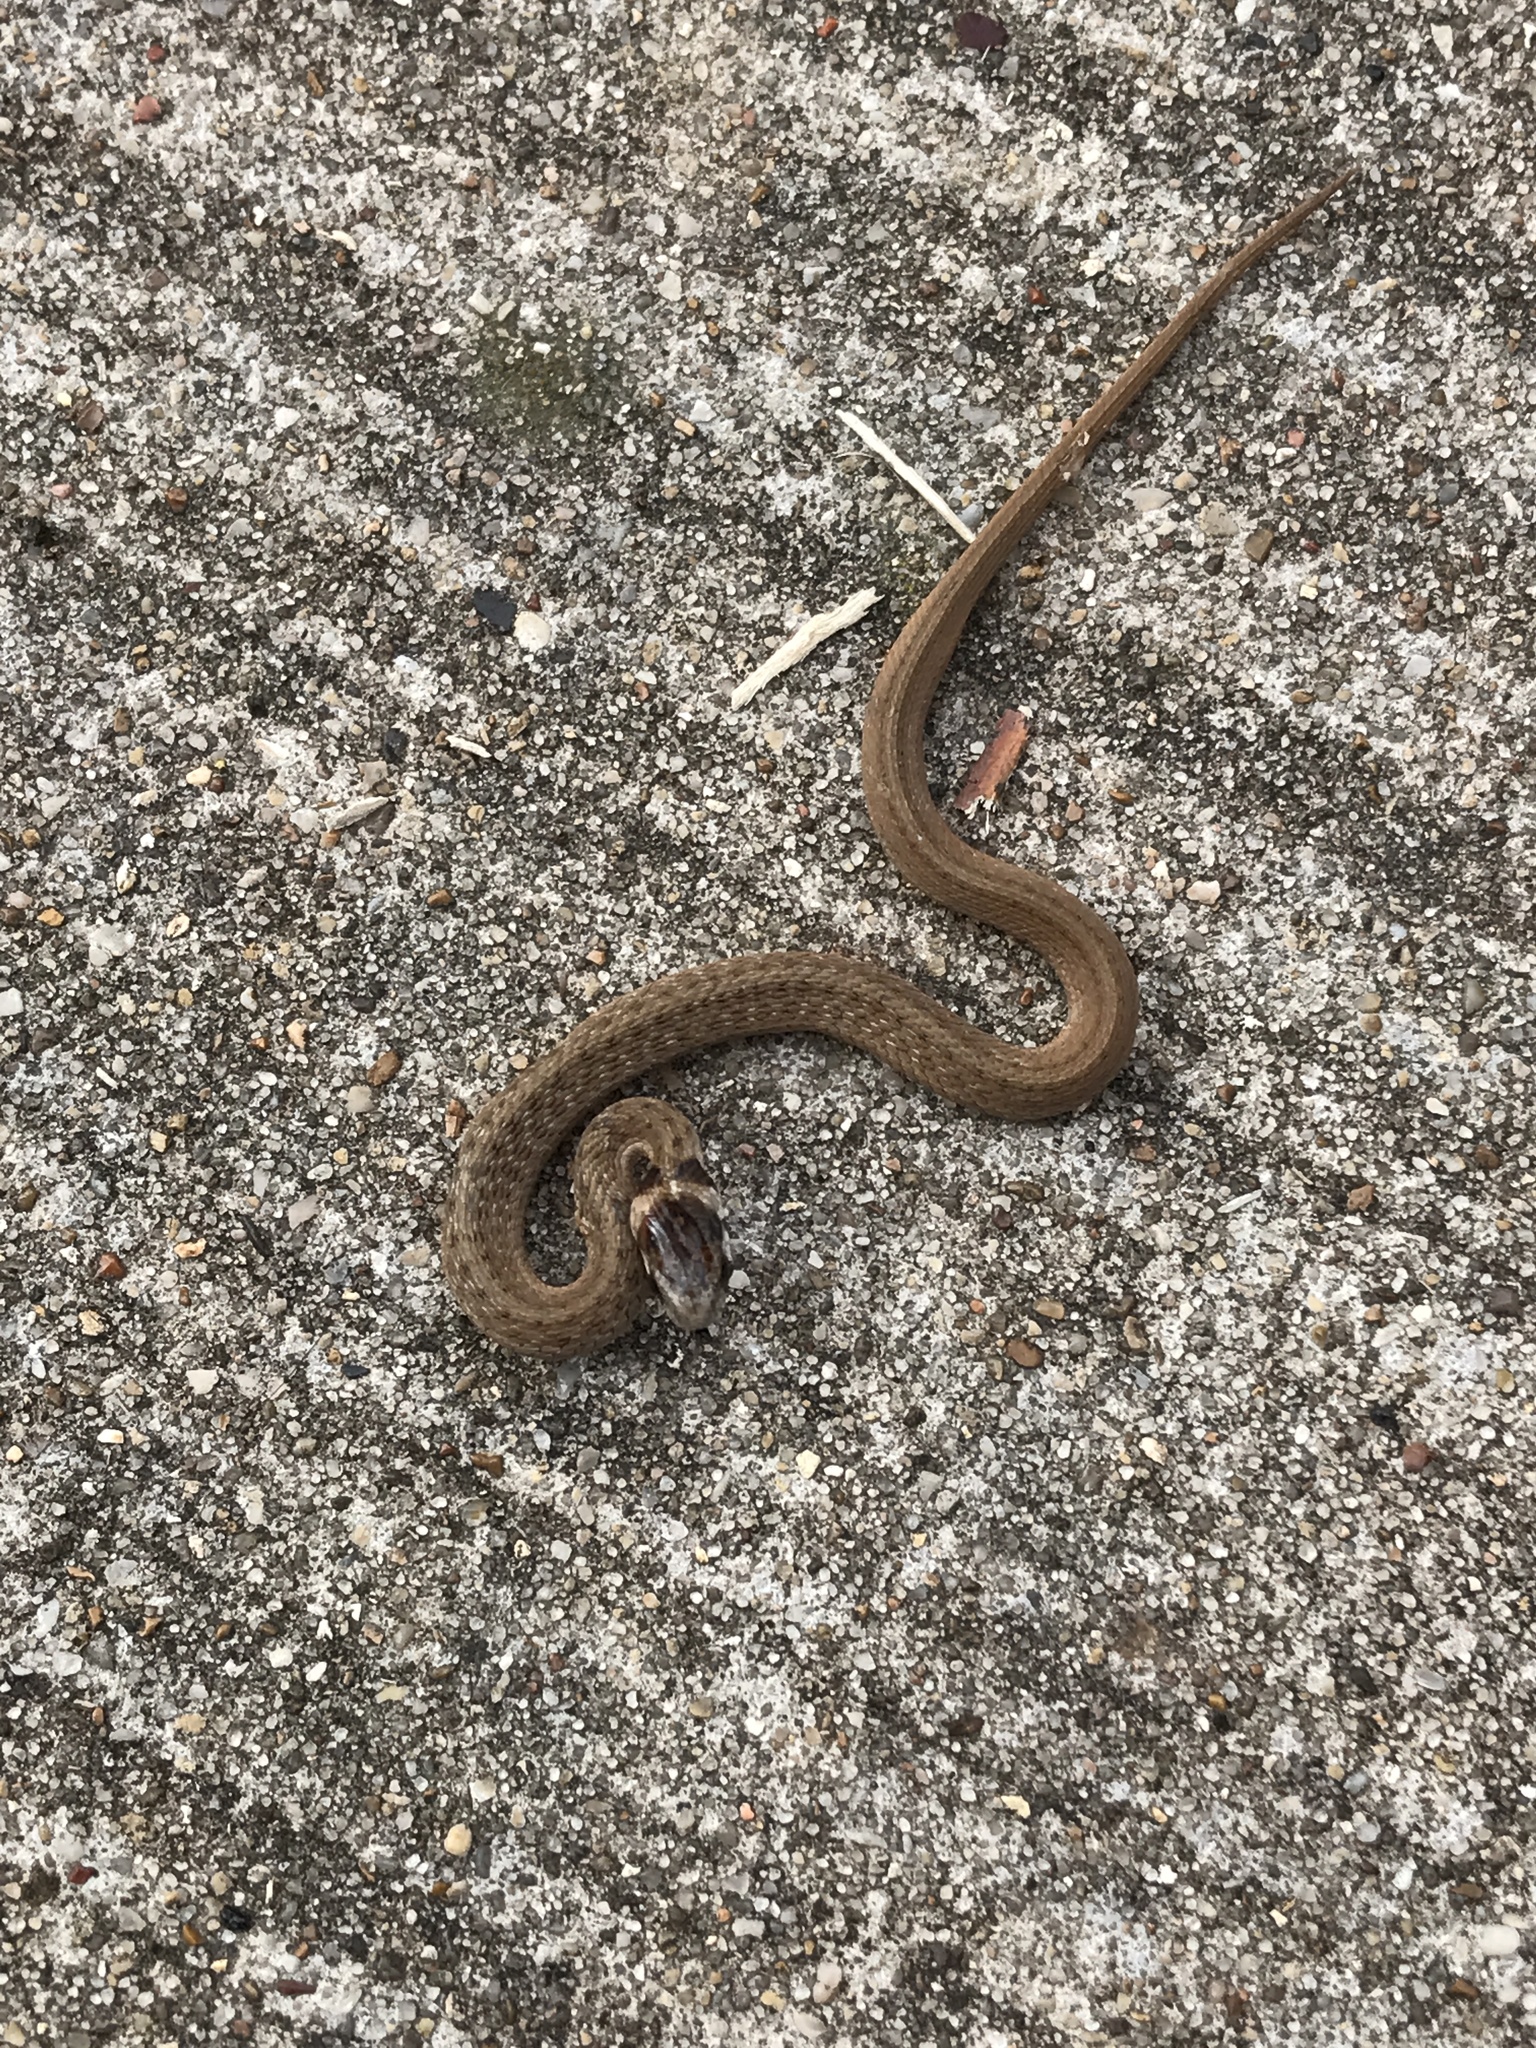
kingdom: Animalia
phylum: Chordata
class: Squamata
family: Colubridae
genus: Storeria
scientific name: Storeria dekayi
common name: (dekay’s) brown snake
